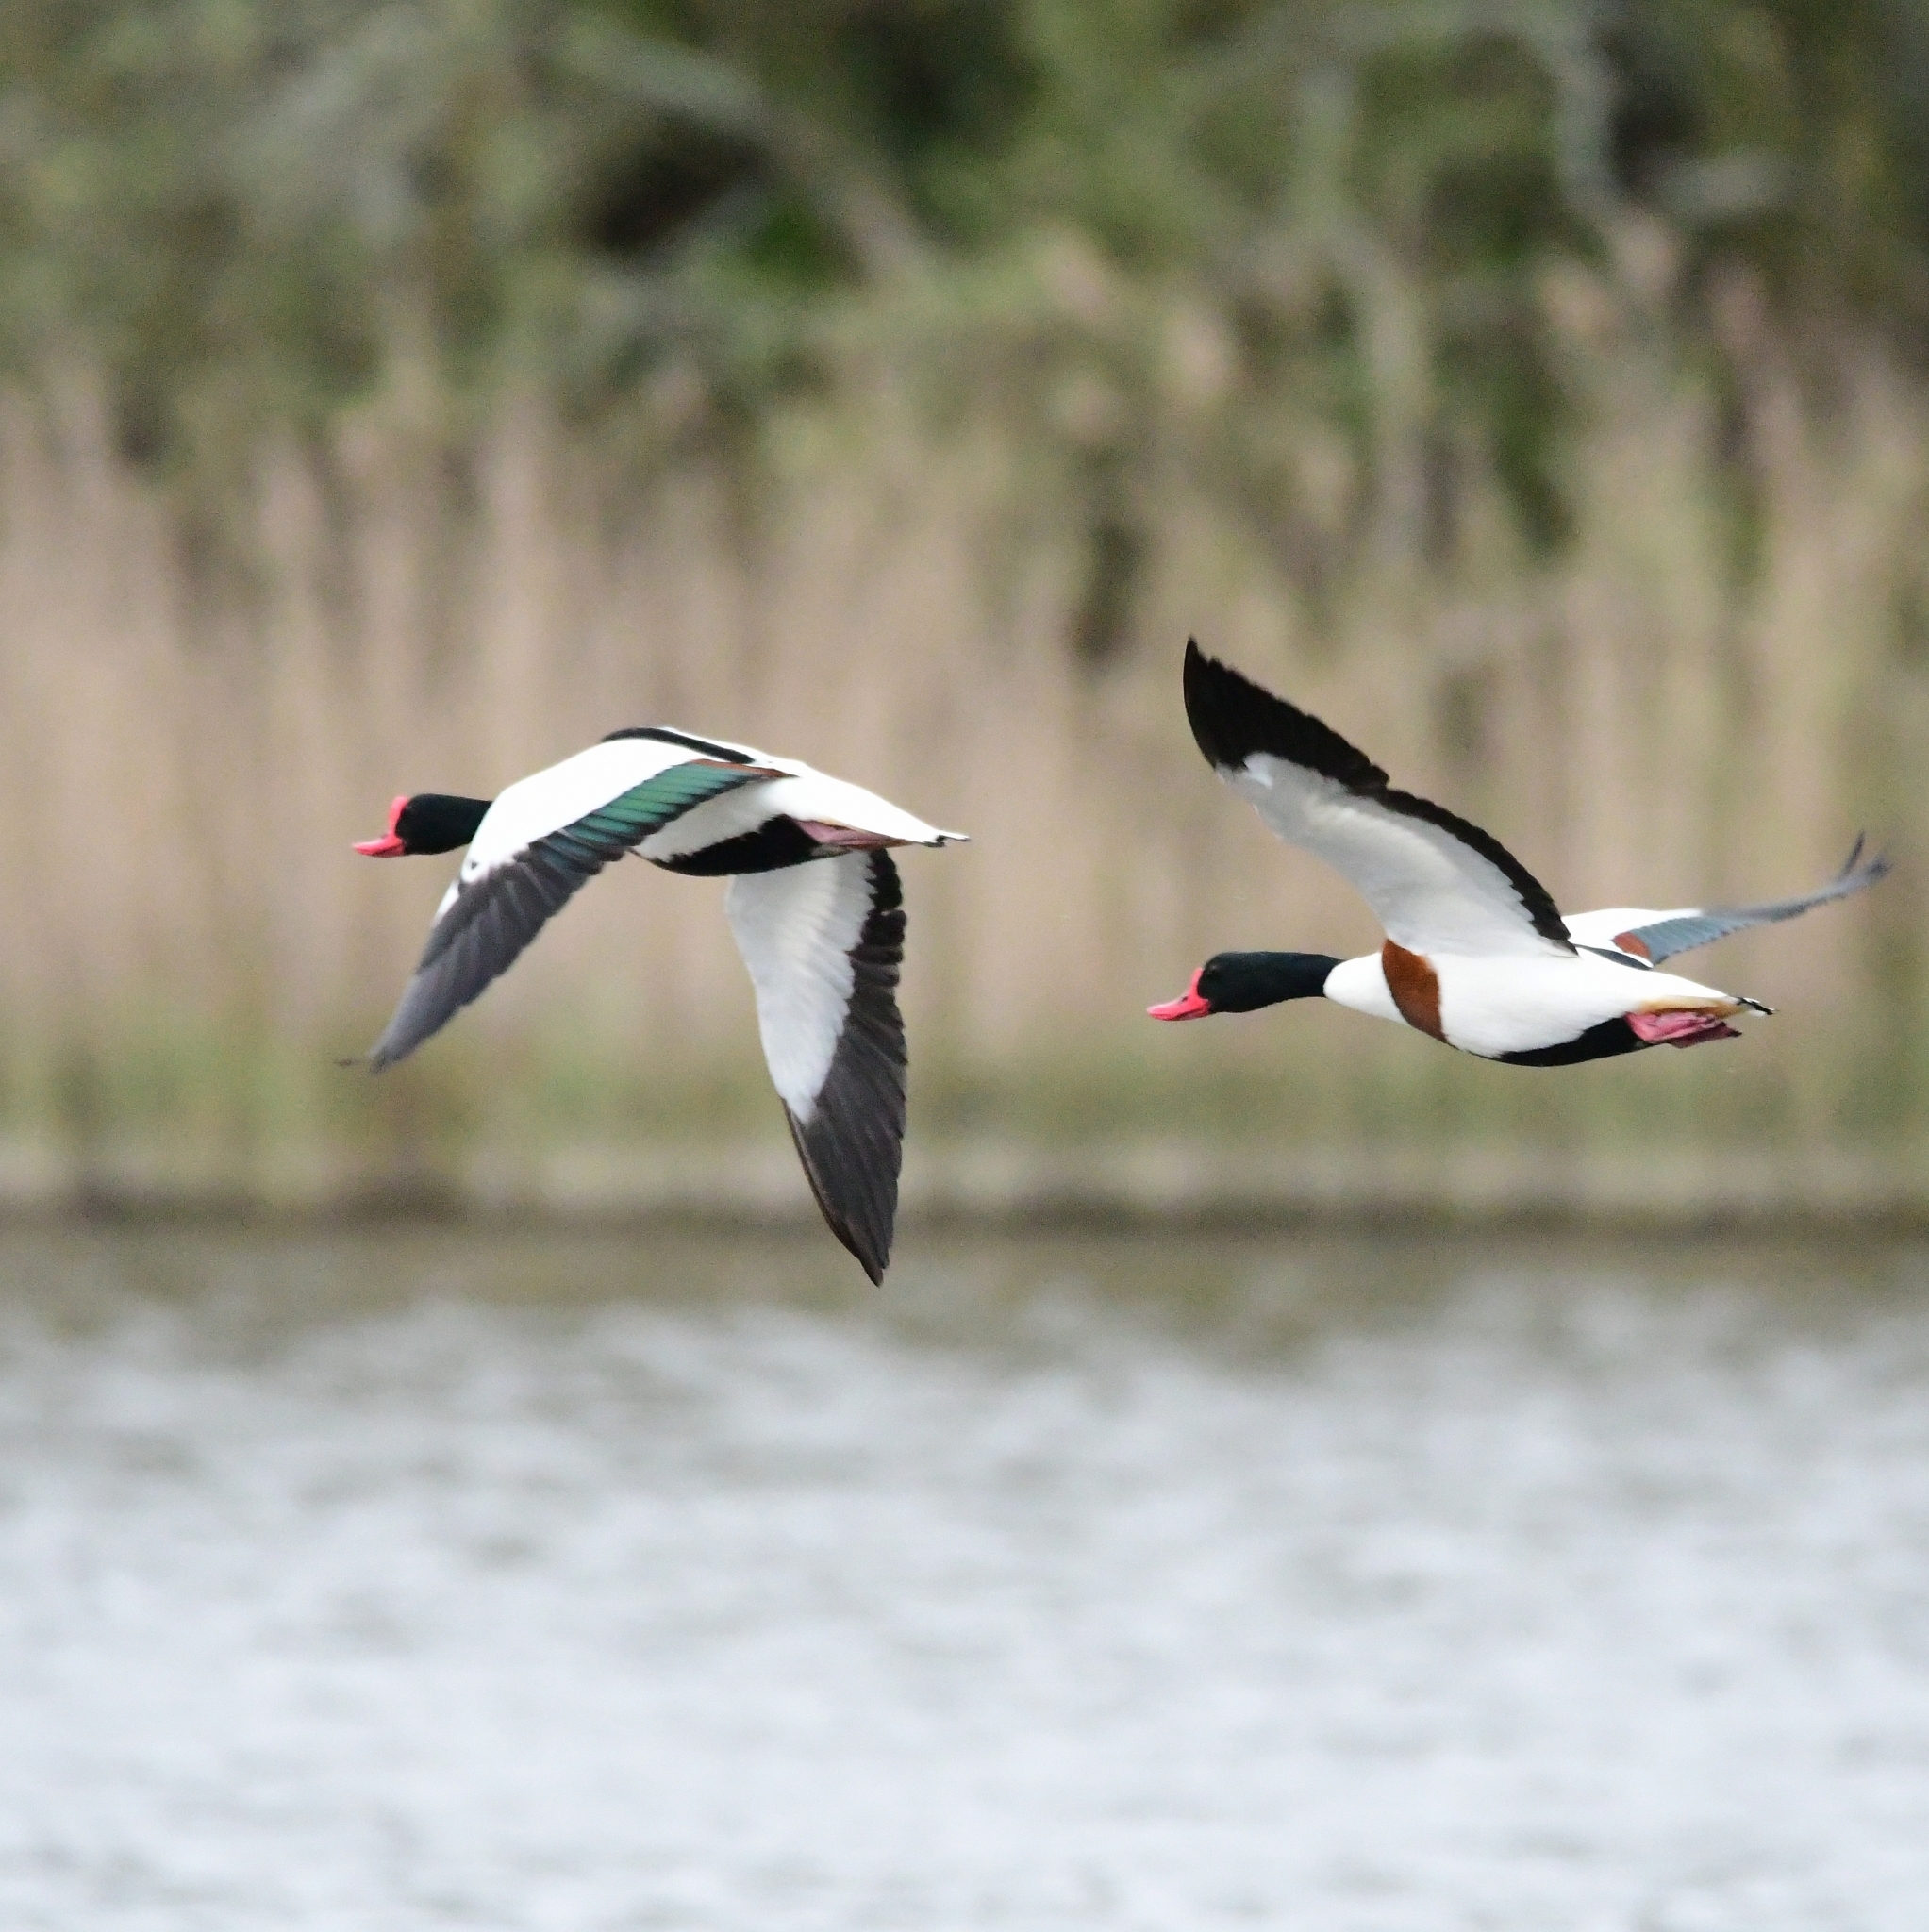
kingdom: Animalia
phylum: Chordata
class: Aves
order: Anseriformes
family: Anatidae
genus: Tadorna
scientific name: Tadorna tadorna
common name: Common shelduck
